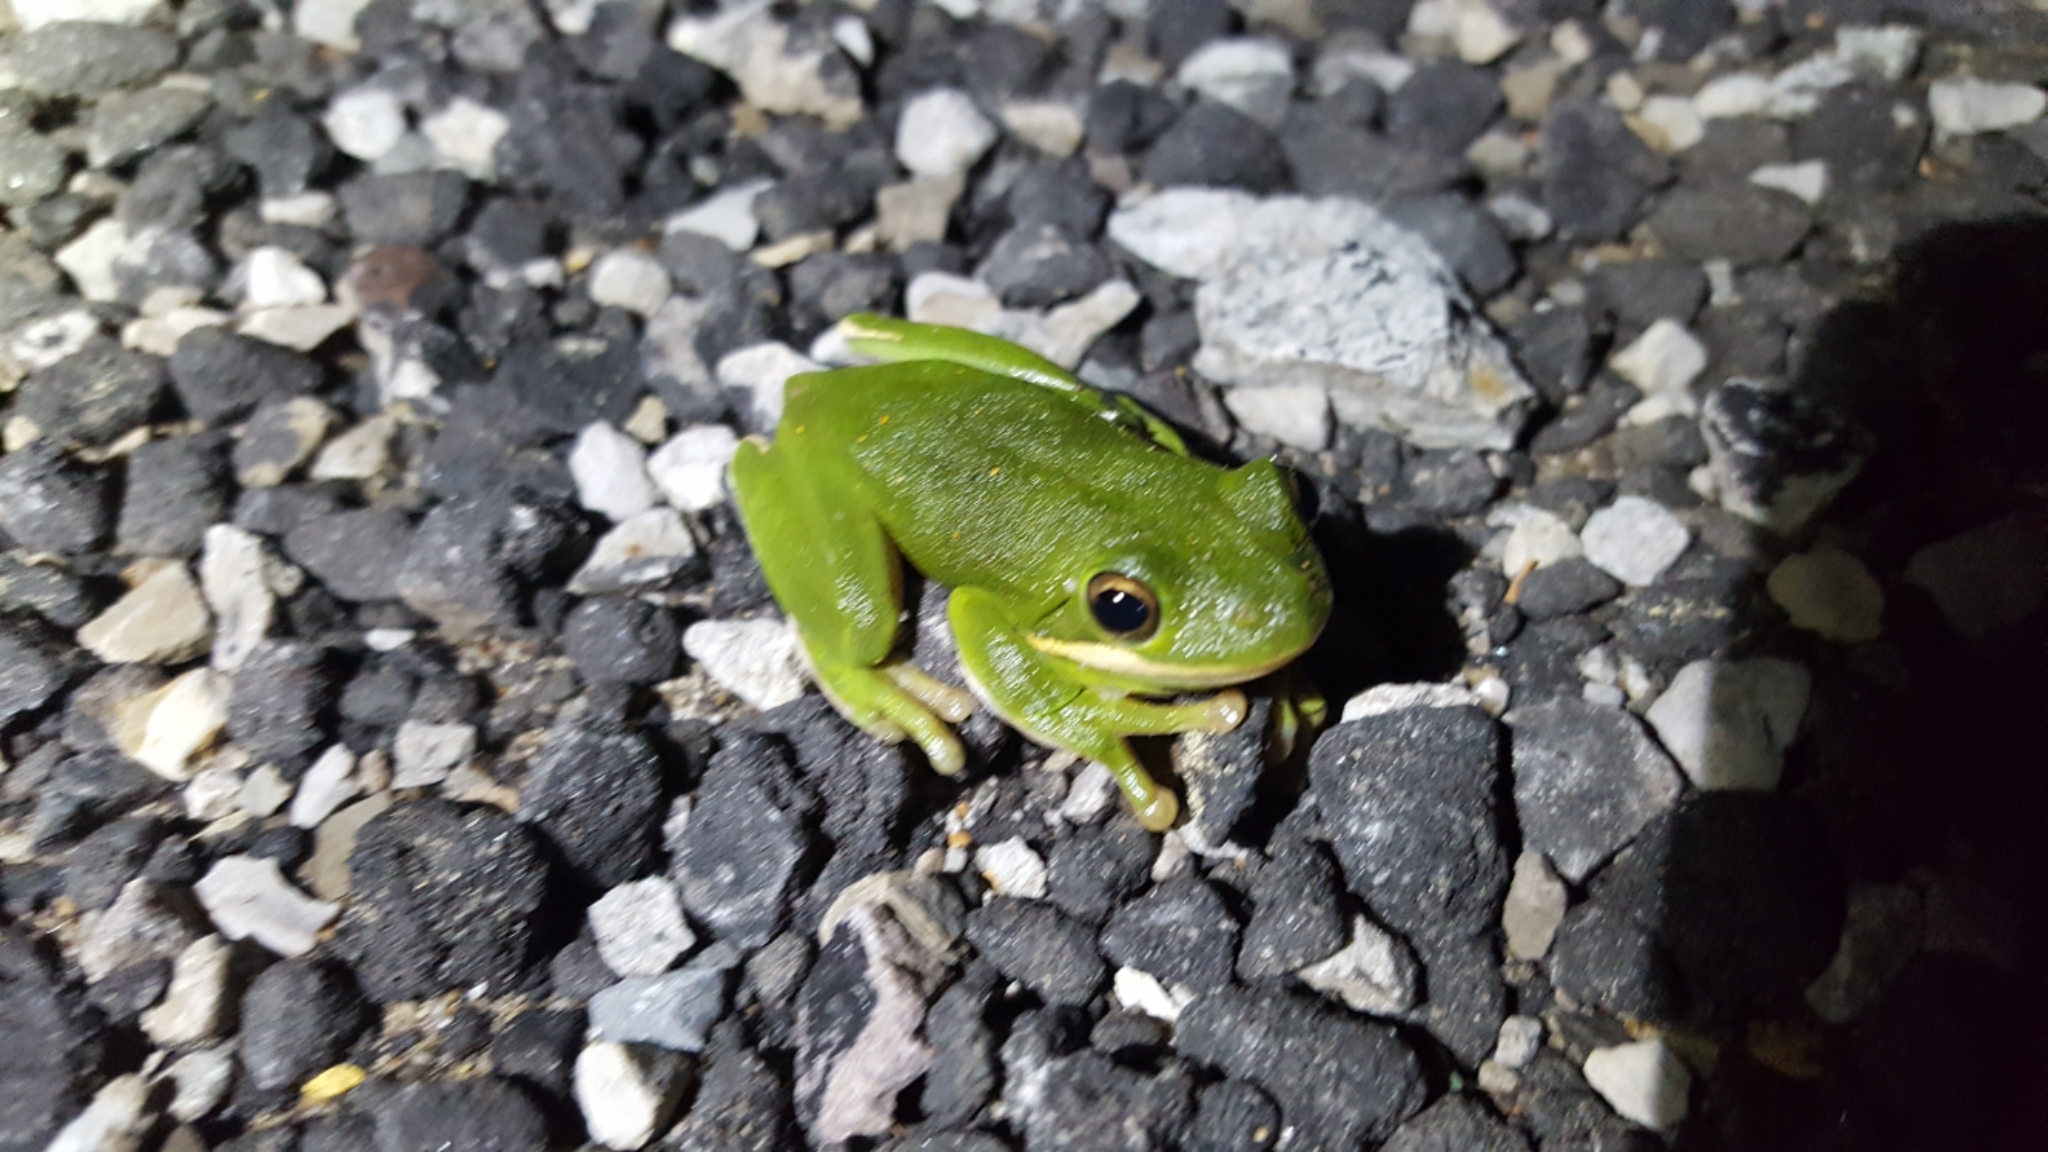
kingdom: Animalia
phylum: Chordata
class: Amphibia
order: Anura
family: Hylidae
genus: Dryophytes
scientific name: Dryophytes cinereus
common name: Green treefrog
